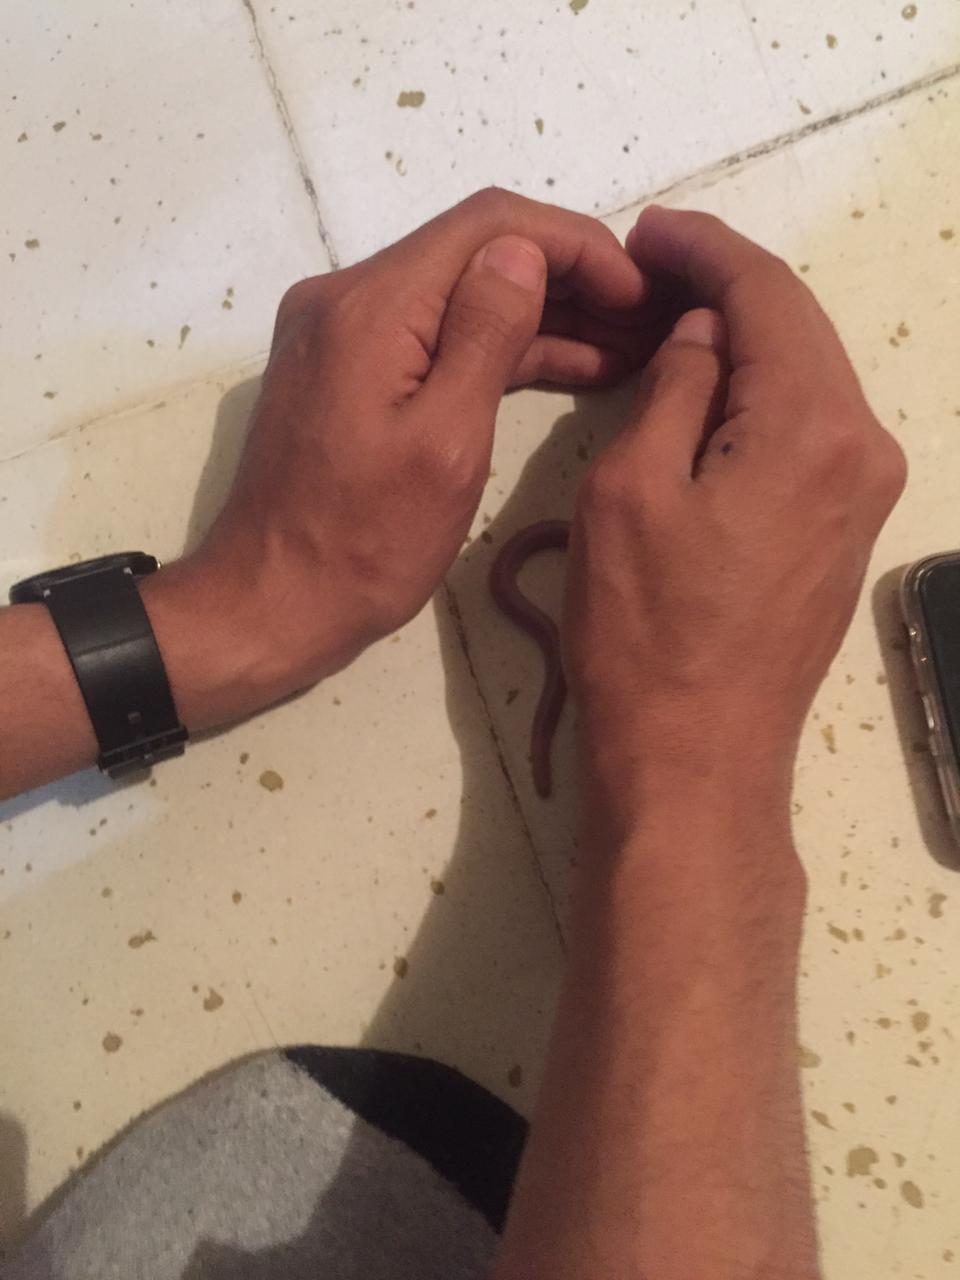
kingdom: Animalia
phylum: Chordata
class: Squamata
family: Bipedidae
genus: Bipes
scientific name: Bipes biporus
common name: Five-toed worm lizard
